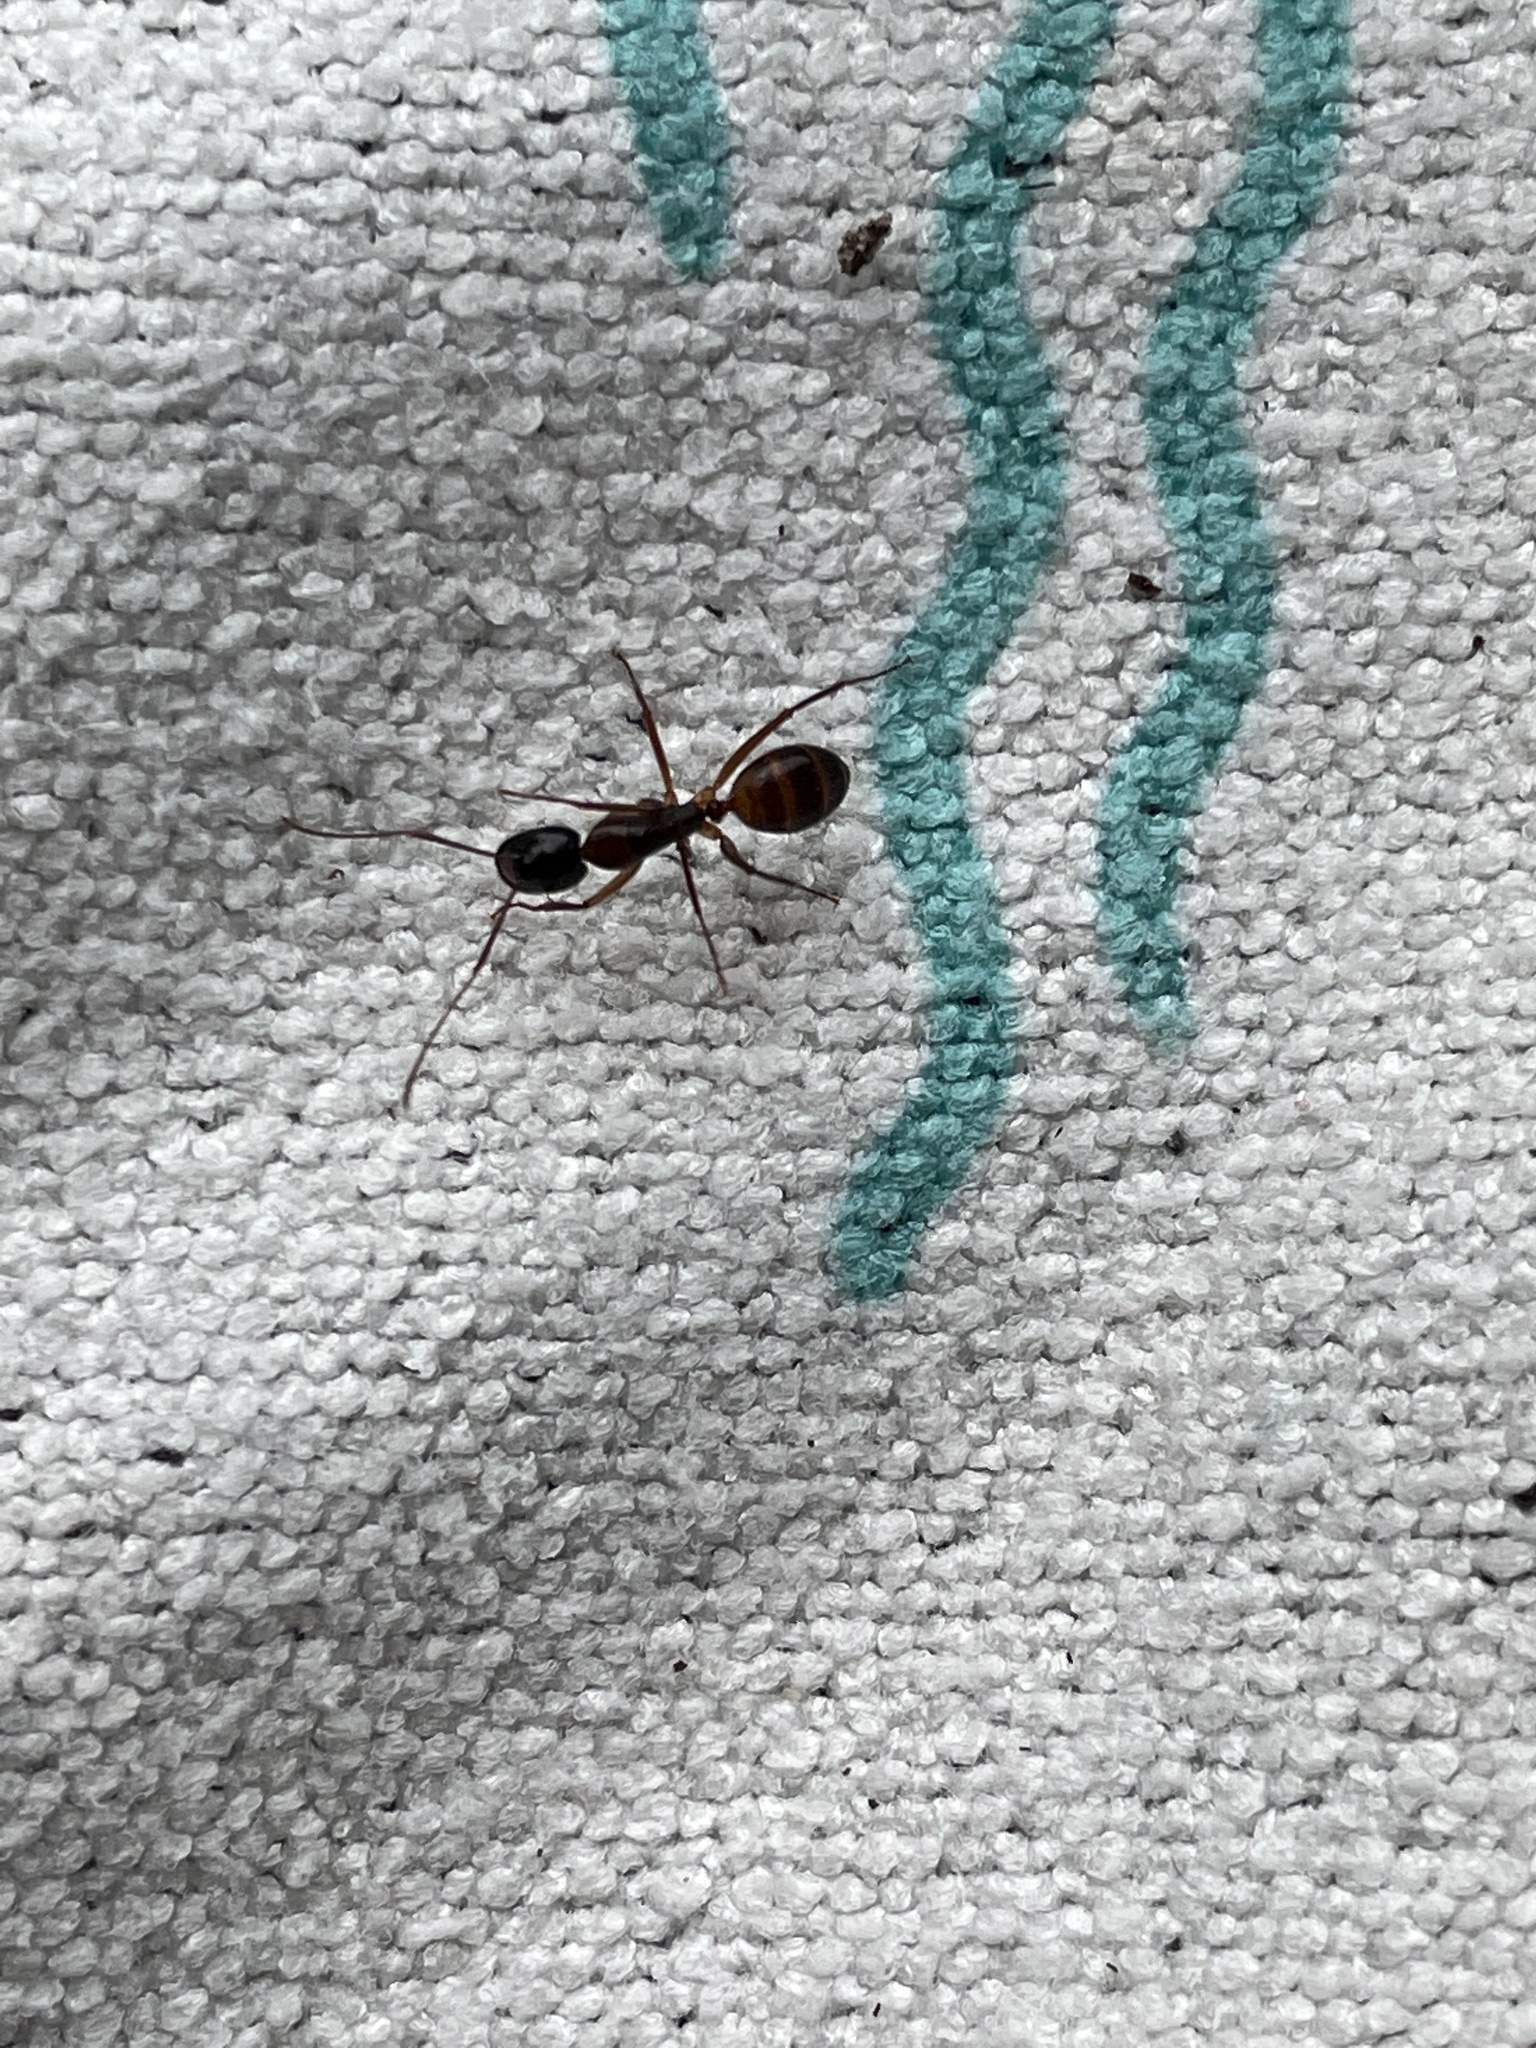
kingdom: Animalia
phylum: Arthropoda
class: Insecta
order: Hymenoptera
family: Formicidae
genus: Camponotus
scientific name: Camponotus americanus
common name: American carpenter ant
